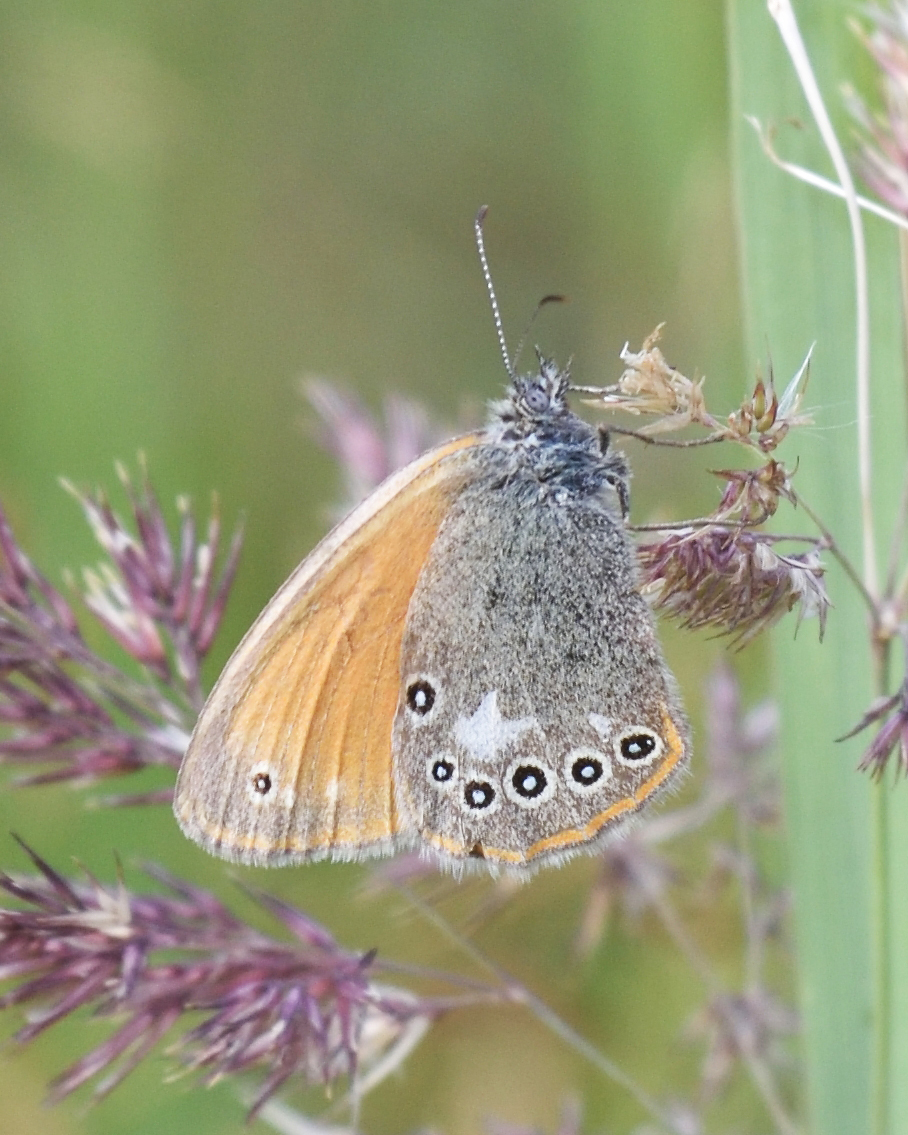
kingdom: Animalia
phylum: Arthropoda
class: Insecta
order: Lepidoptera
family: Nymphalidae
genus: Coenonympha
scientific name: Coenonympha iphis
